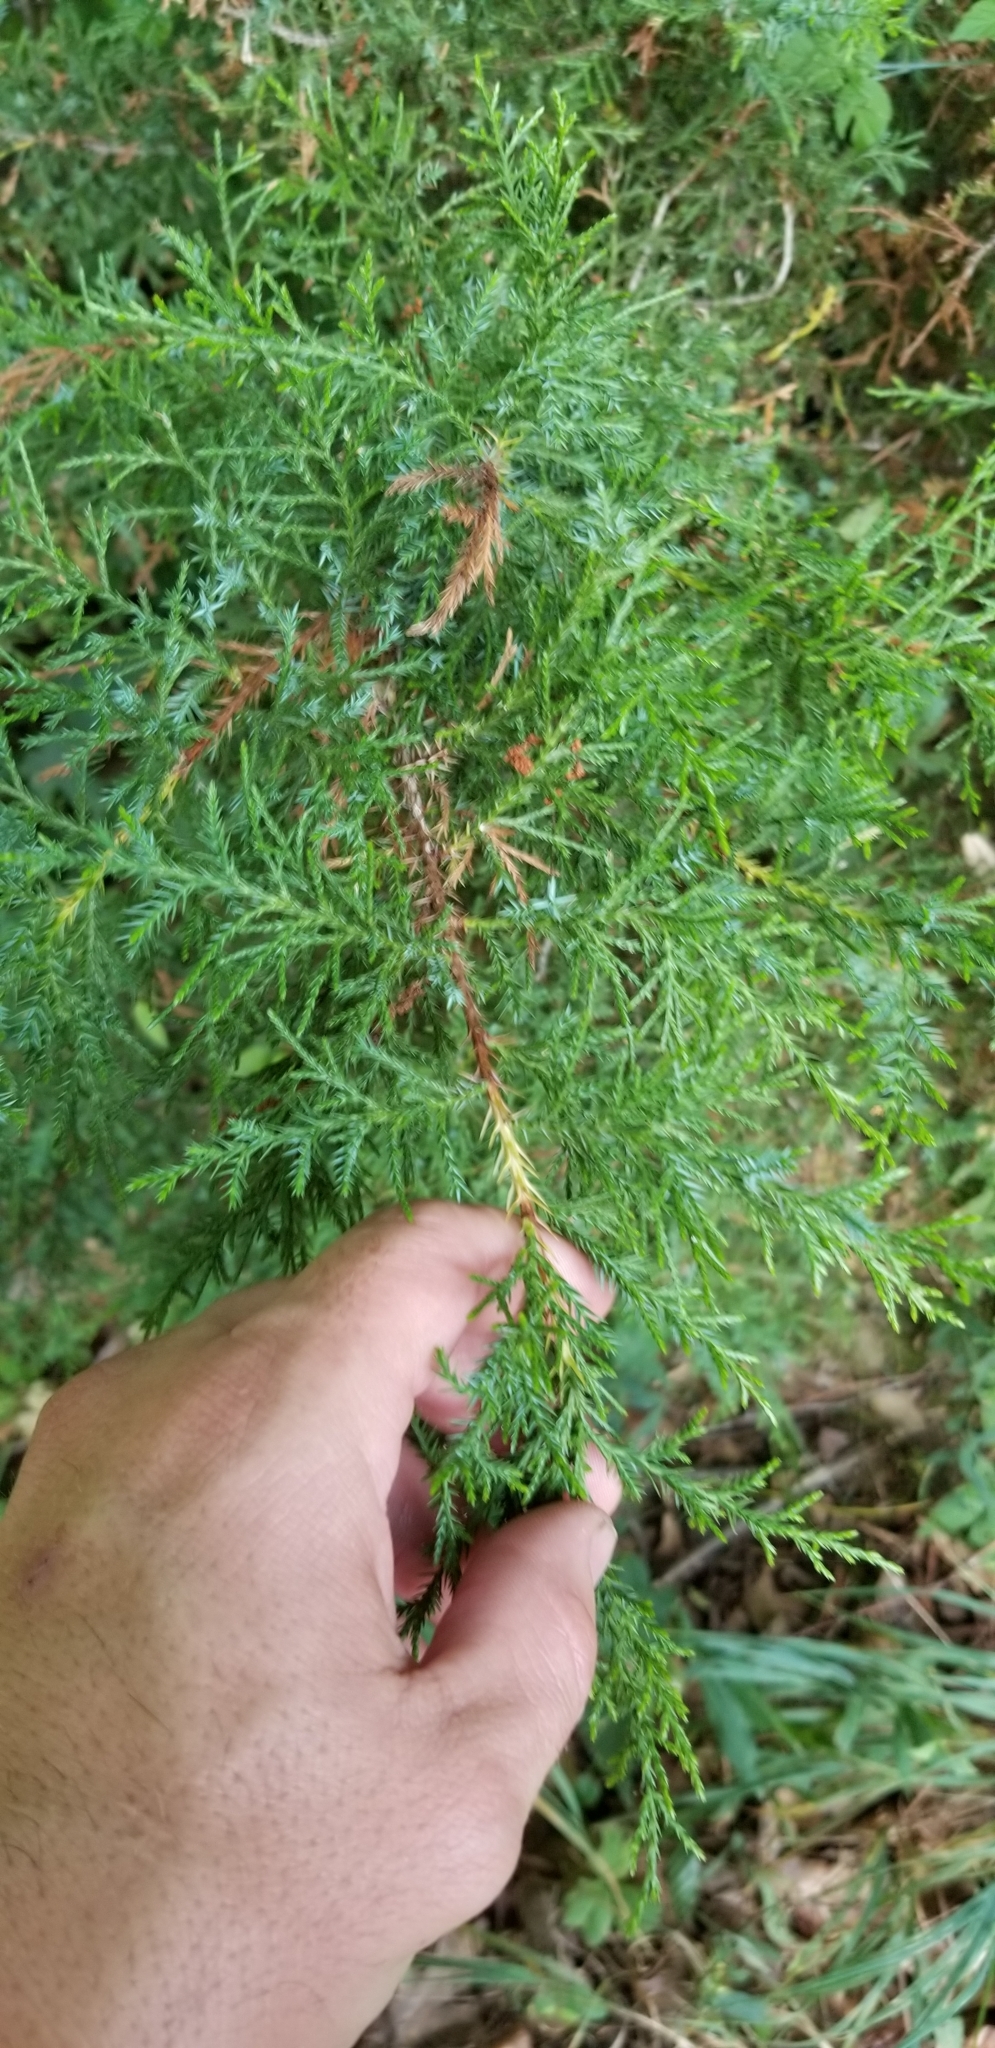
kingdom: Plantae
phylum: Tracheophyta
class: Pinopsida
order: Pinales
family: Cupressaceae
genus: Juniperus
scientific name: Juniperus virginiana
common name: Red juniper
